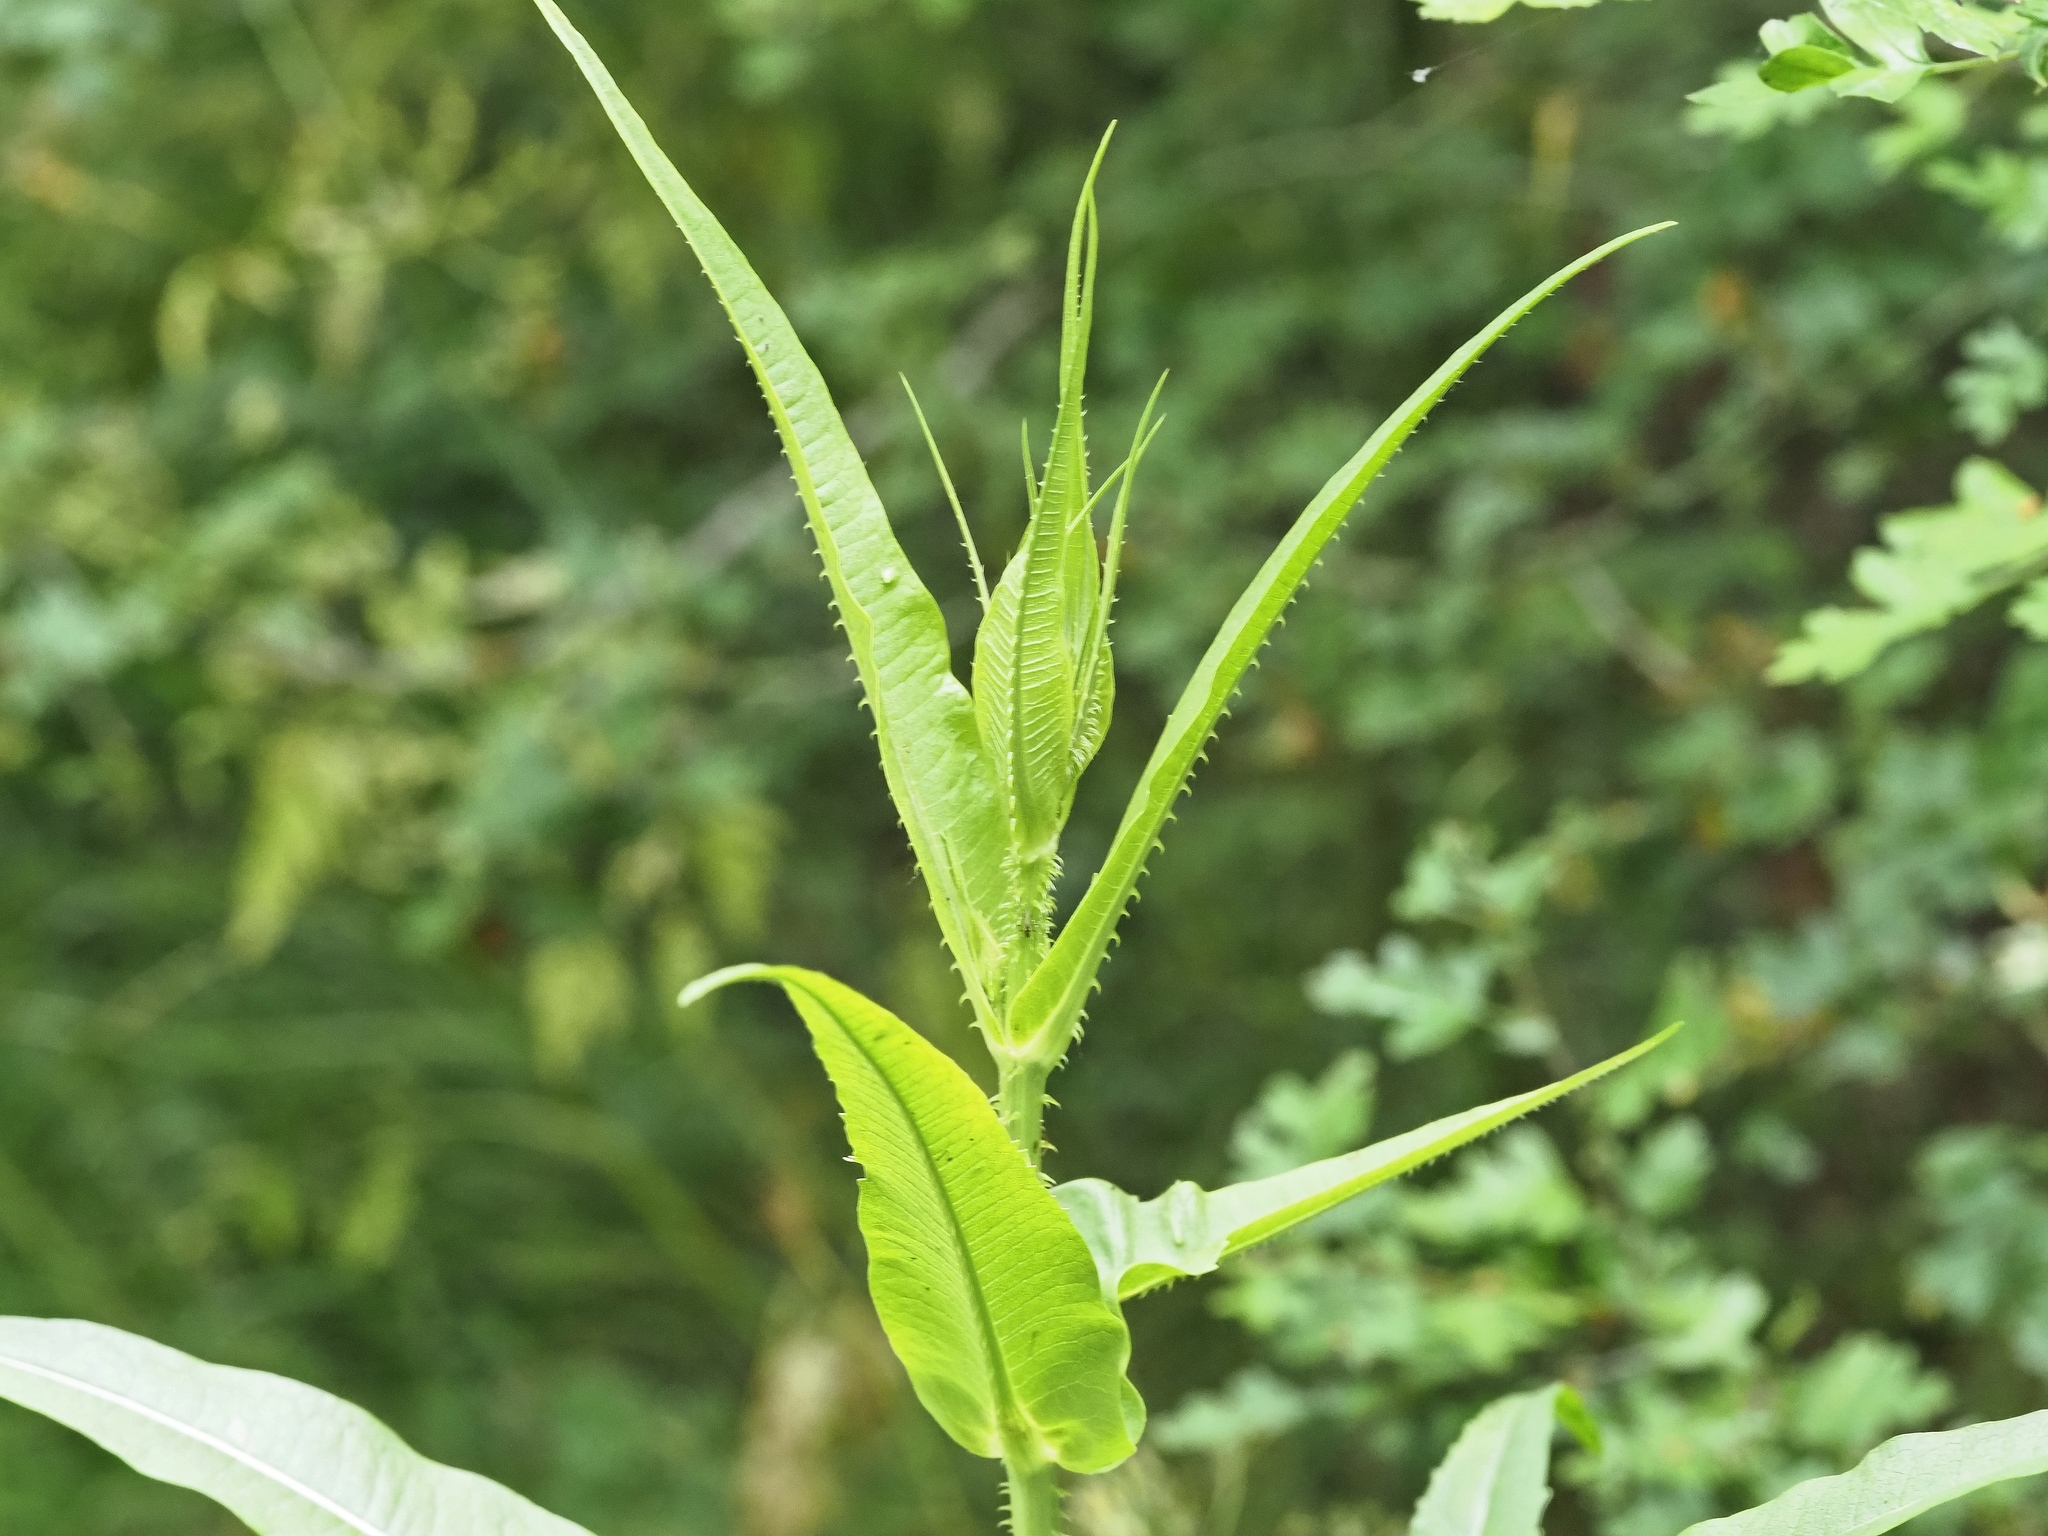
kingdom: Plantae
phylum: Tracheophyta
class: Magnoliopsida
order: Dipsacales
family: Caprifoliaceae
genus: Dipsacus
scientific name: Dipsacus fullonum
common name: Teasel
